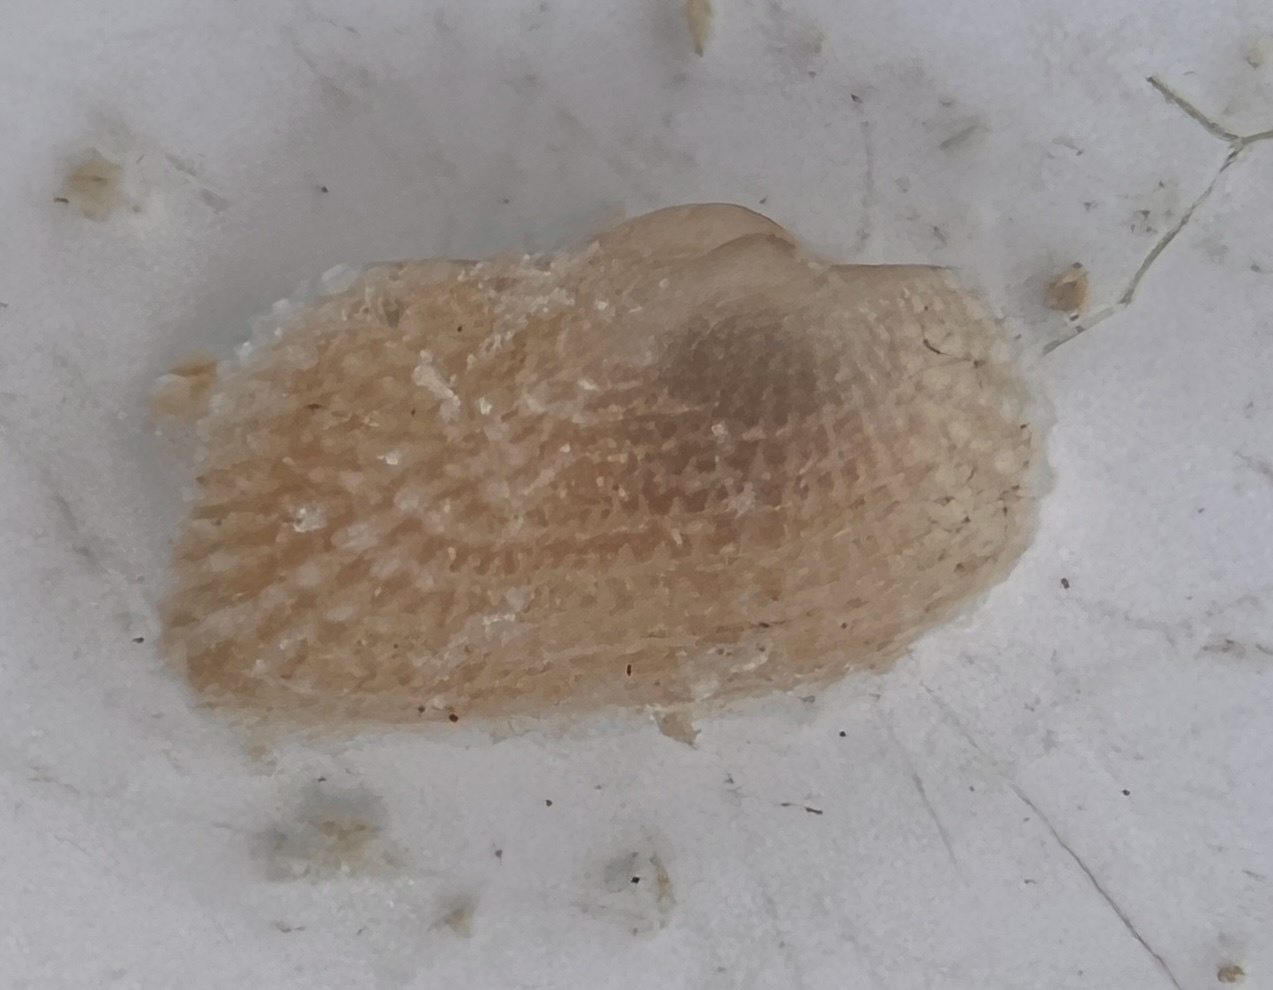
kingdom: Animalia
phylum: Mollusca
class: Bivalvia
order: Arcida
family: Noetiidae
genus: Arcopsis
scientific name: Arcopsis adamsi
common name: Cancellate miniature ark
